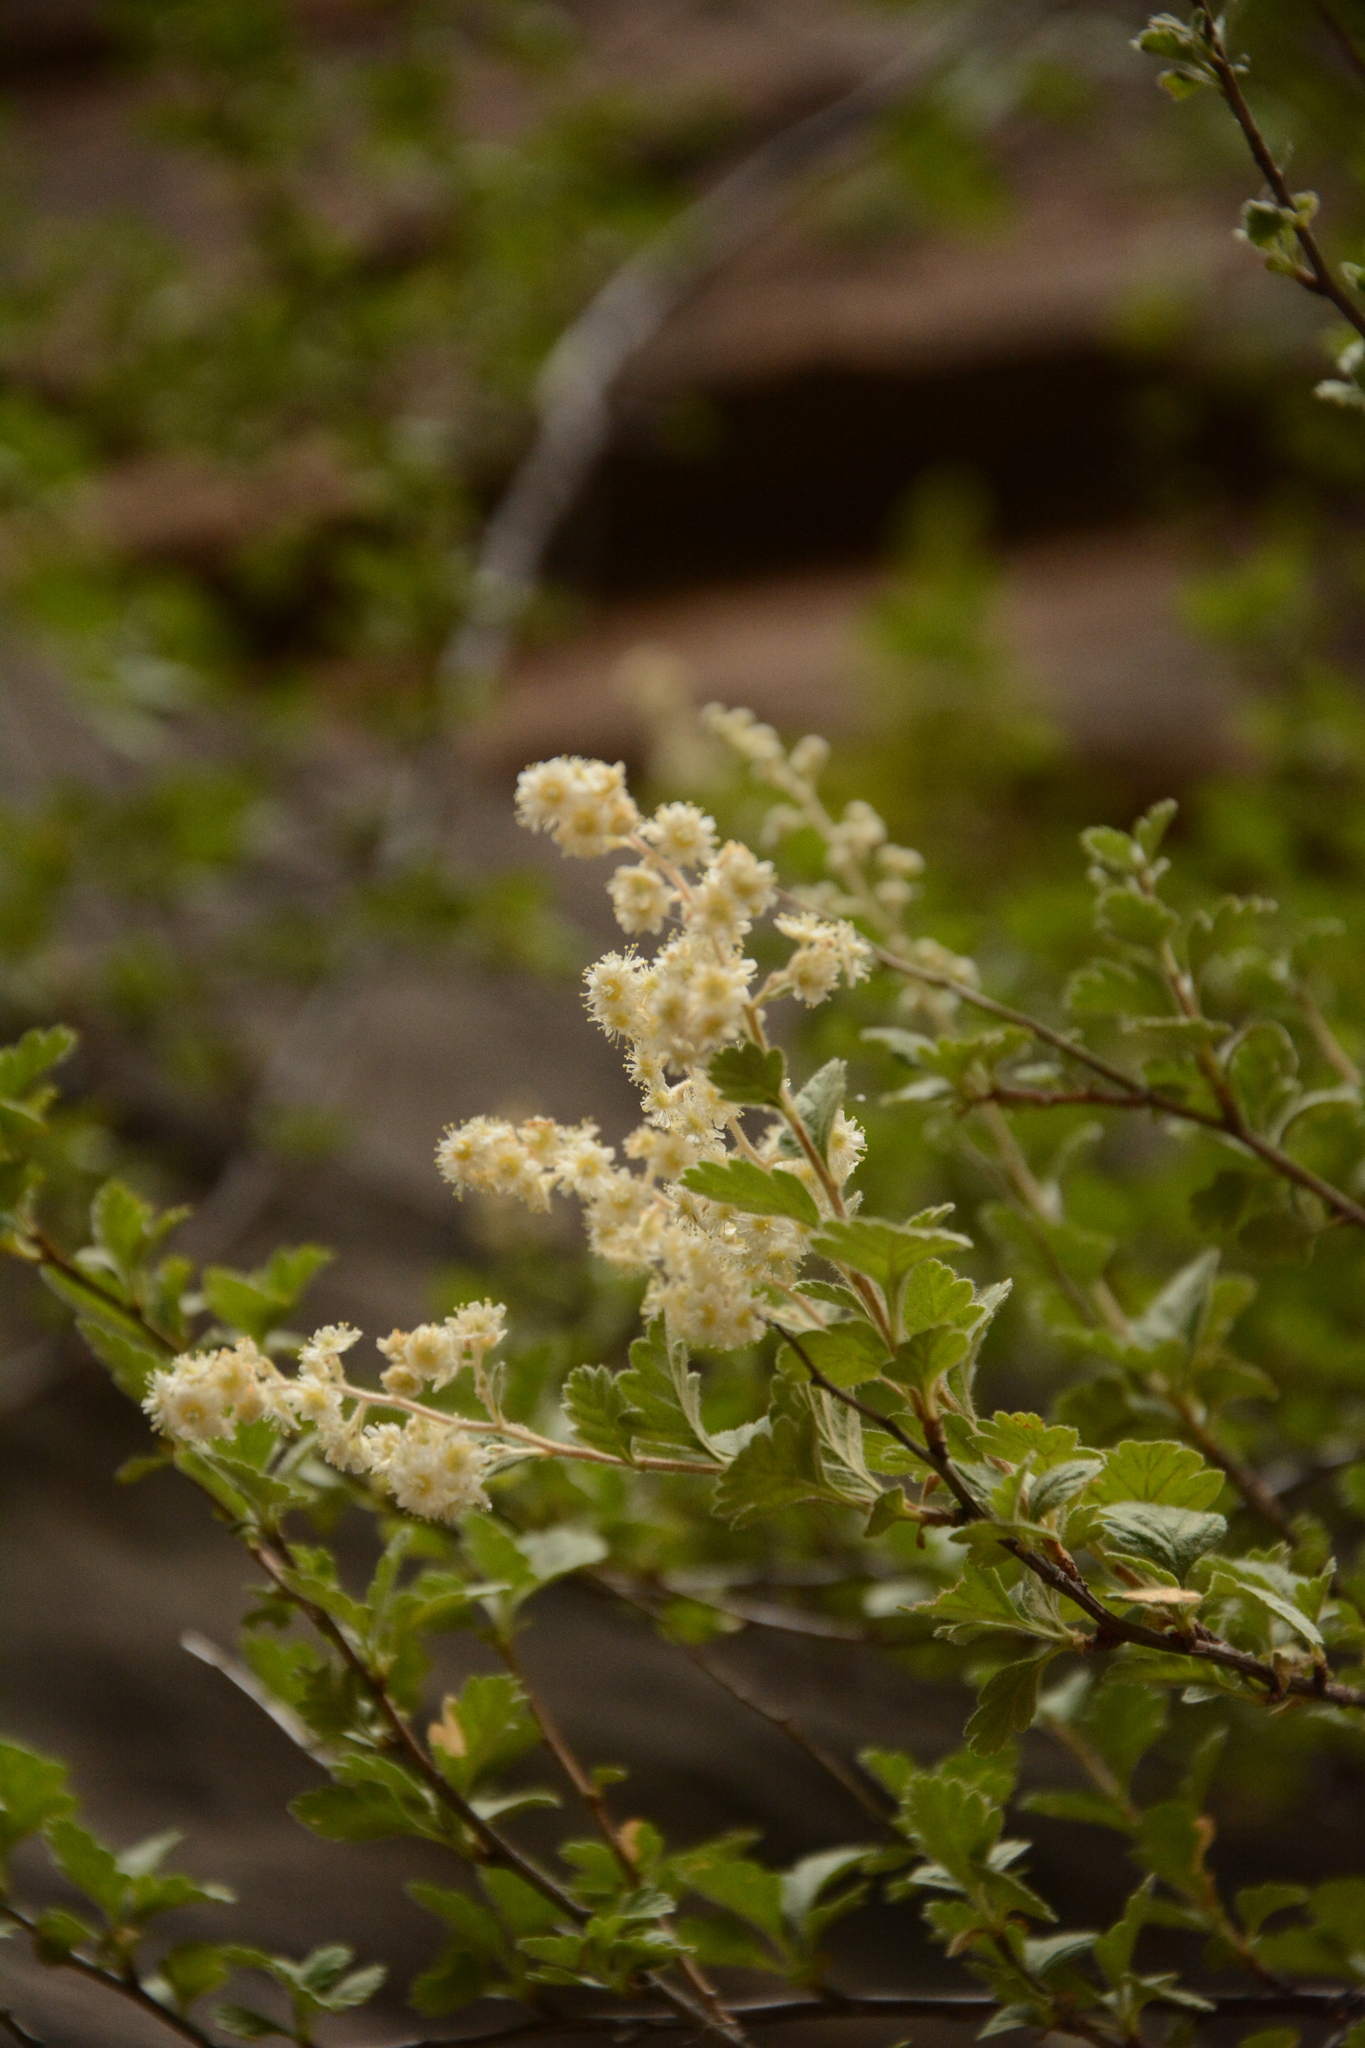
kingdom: Plantae
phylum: Tracheophyta
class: Magnoliopsida
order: Rosales
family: Rosaceae
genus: Holodiscus
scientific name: Holodiscus discolor
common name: Oceanspray
